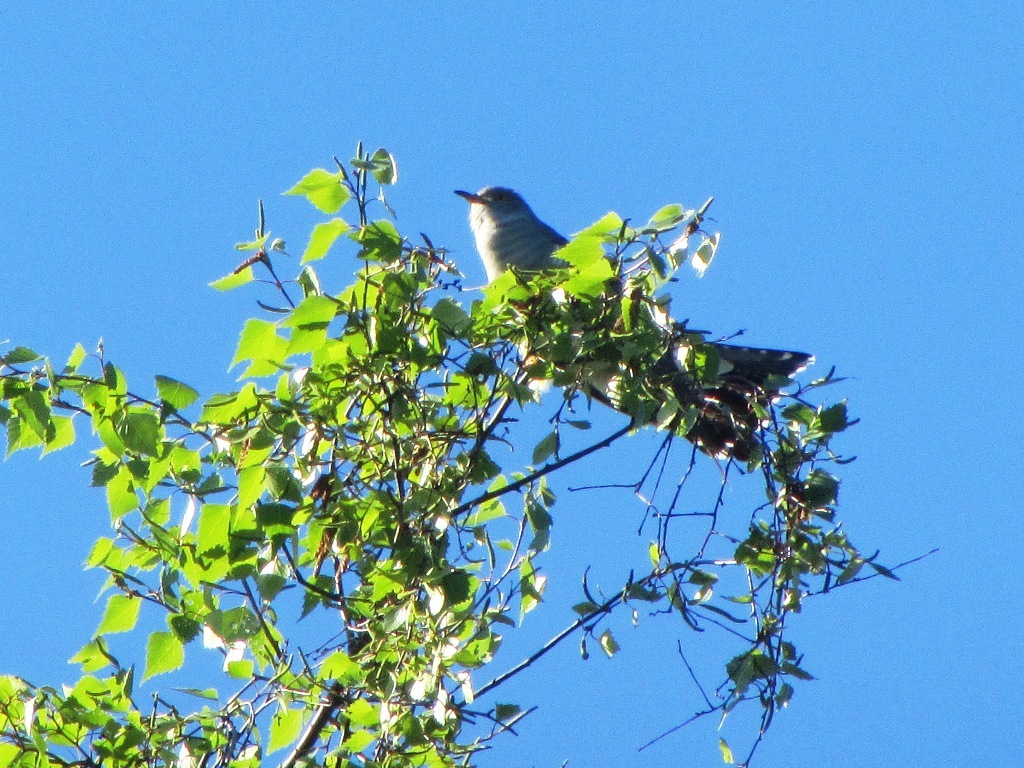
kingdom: Animalia
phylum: Chordata
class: Aves
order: Cuculiformes
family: Cuculidae
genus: Cuculus
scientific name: Cuculus canorus
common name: Common cuckoo
